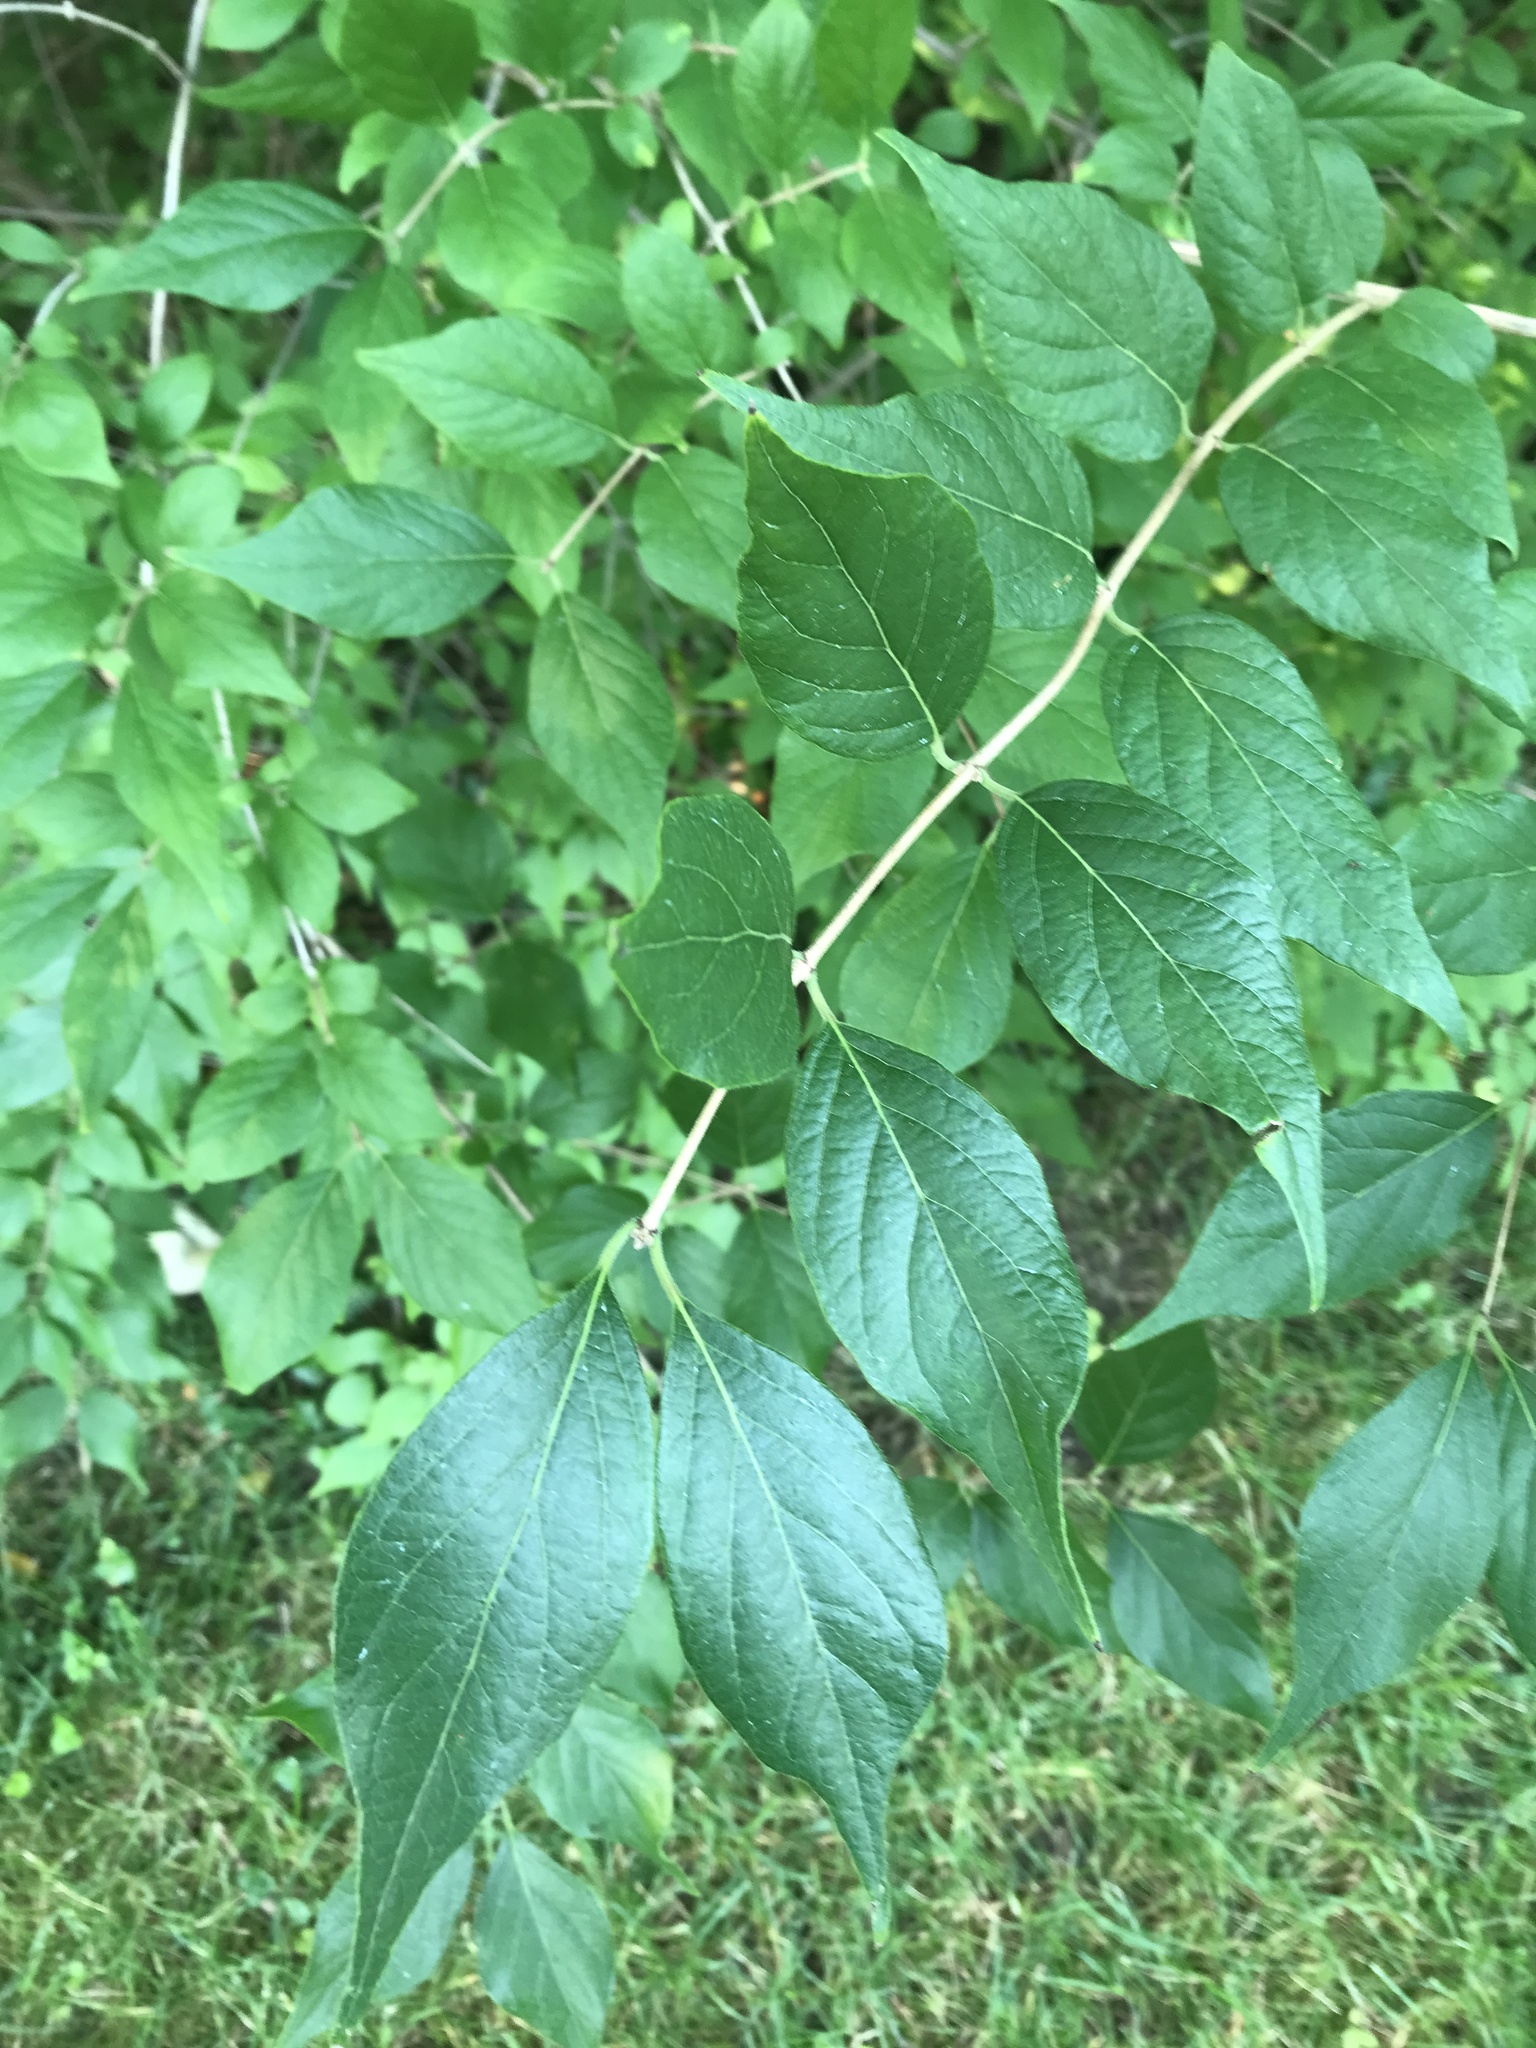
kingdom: Plantae
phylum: Tracheophyta
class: Magnoliopsida
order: Dipsacales
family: Caprifoliaceae
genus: Lonicera
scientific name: Lonicera maackii
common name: Amur honeysuckle
